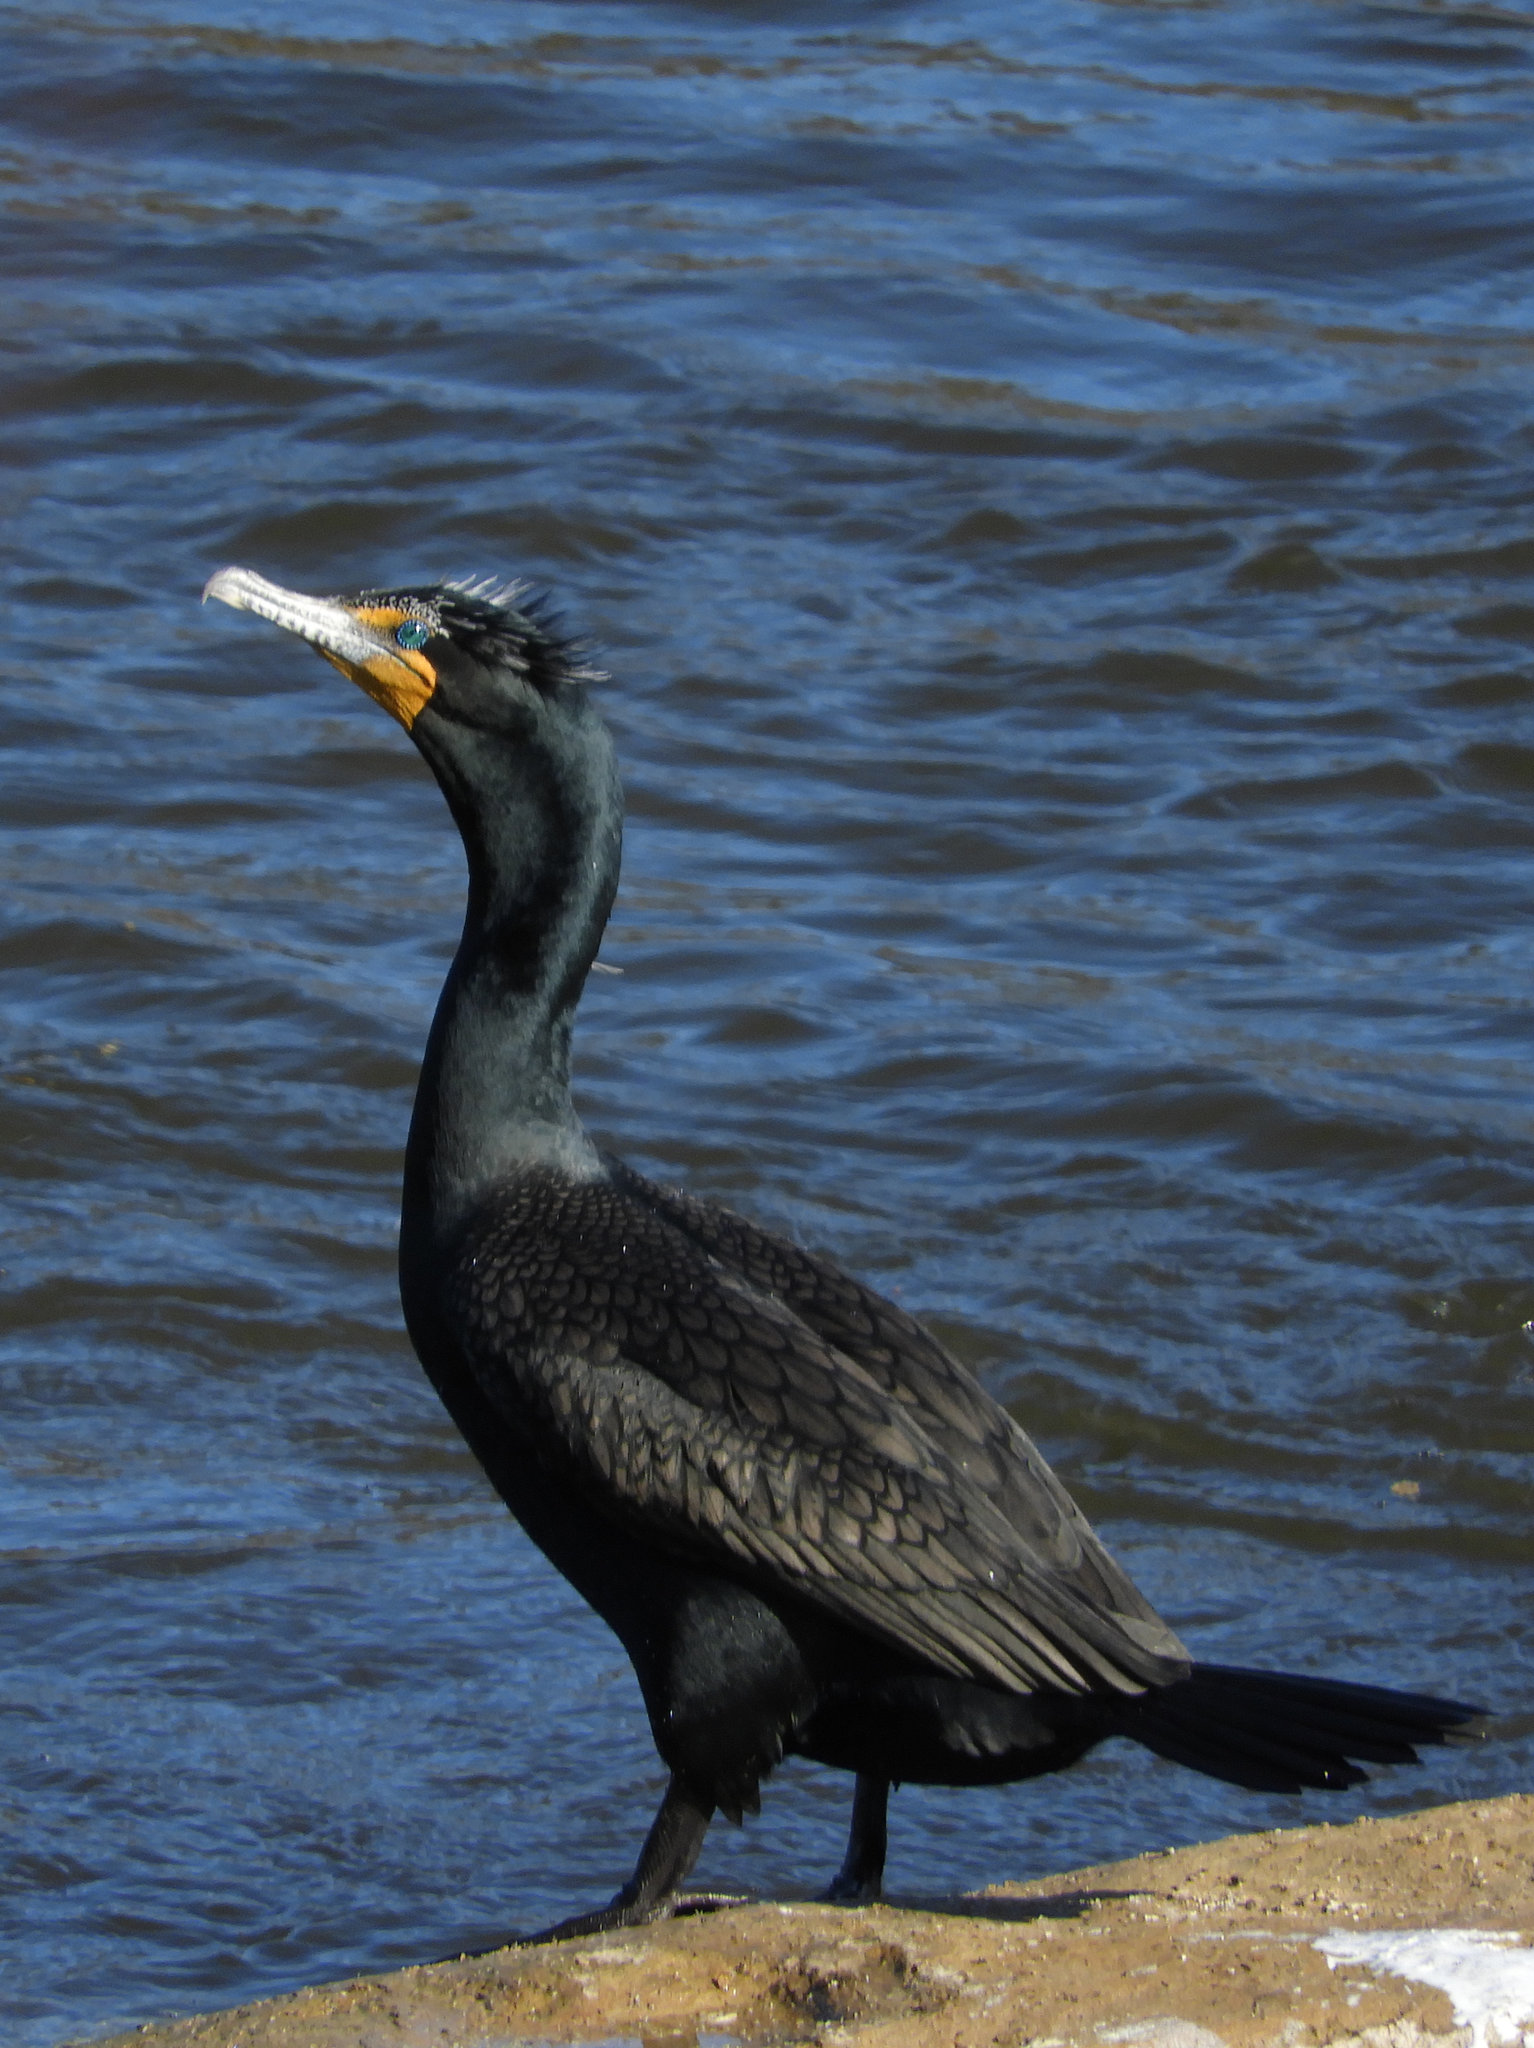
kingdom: Animalia
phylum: Chordata
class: Aves
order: Suliformes
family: Phalacrocoracidae
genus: Phalacrocorax
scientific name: Phalacrocorax auritus
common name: Double-crested cormorant
